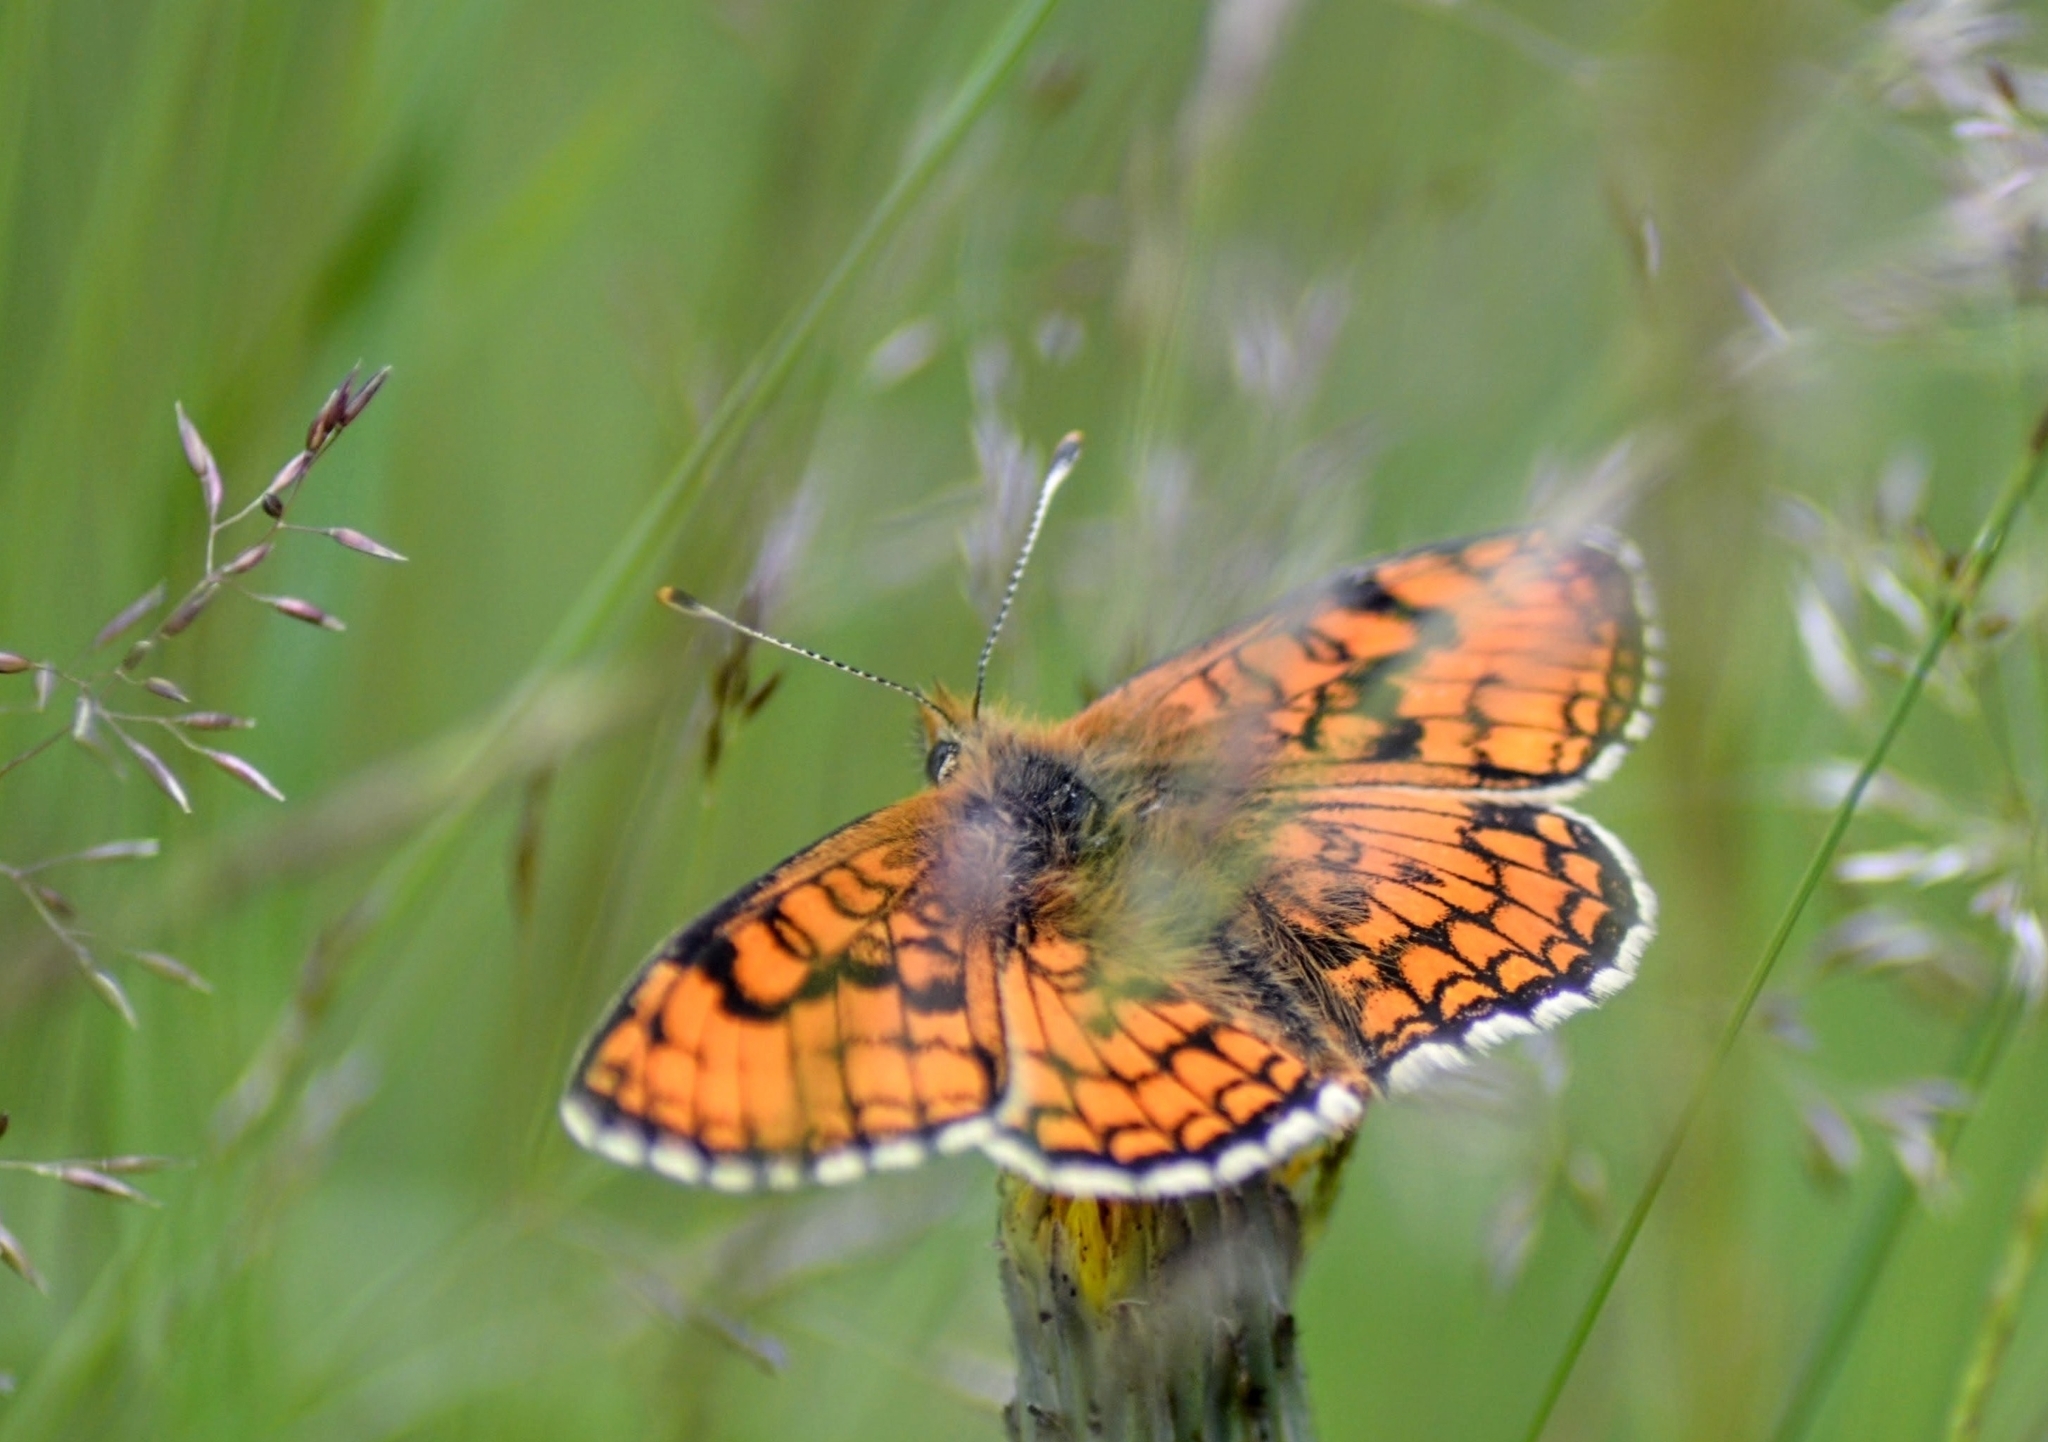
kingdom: Animalia
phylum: Arthropoda
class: Insecta
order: Lepidoptera
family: Nymphalidae
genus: Mellicta
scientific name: Mellicta parthenoides
